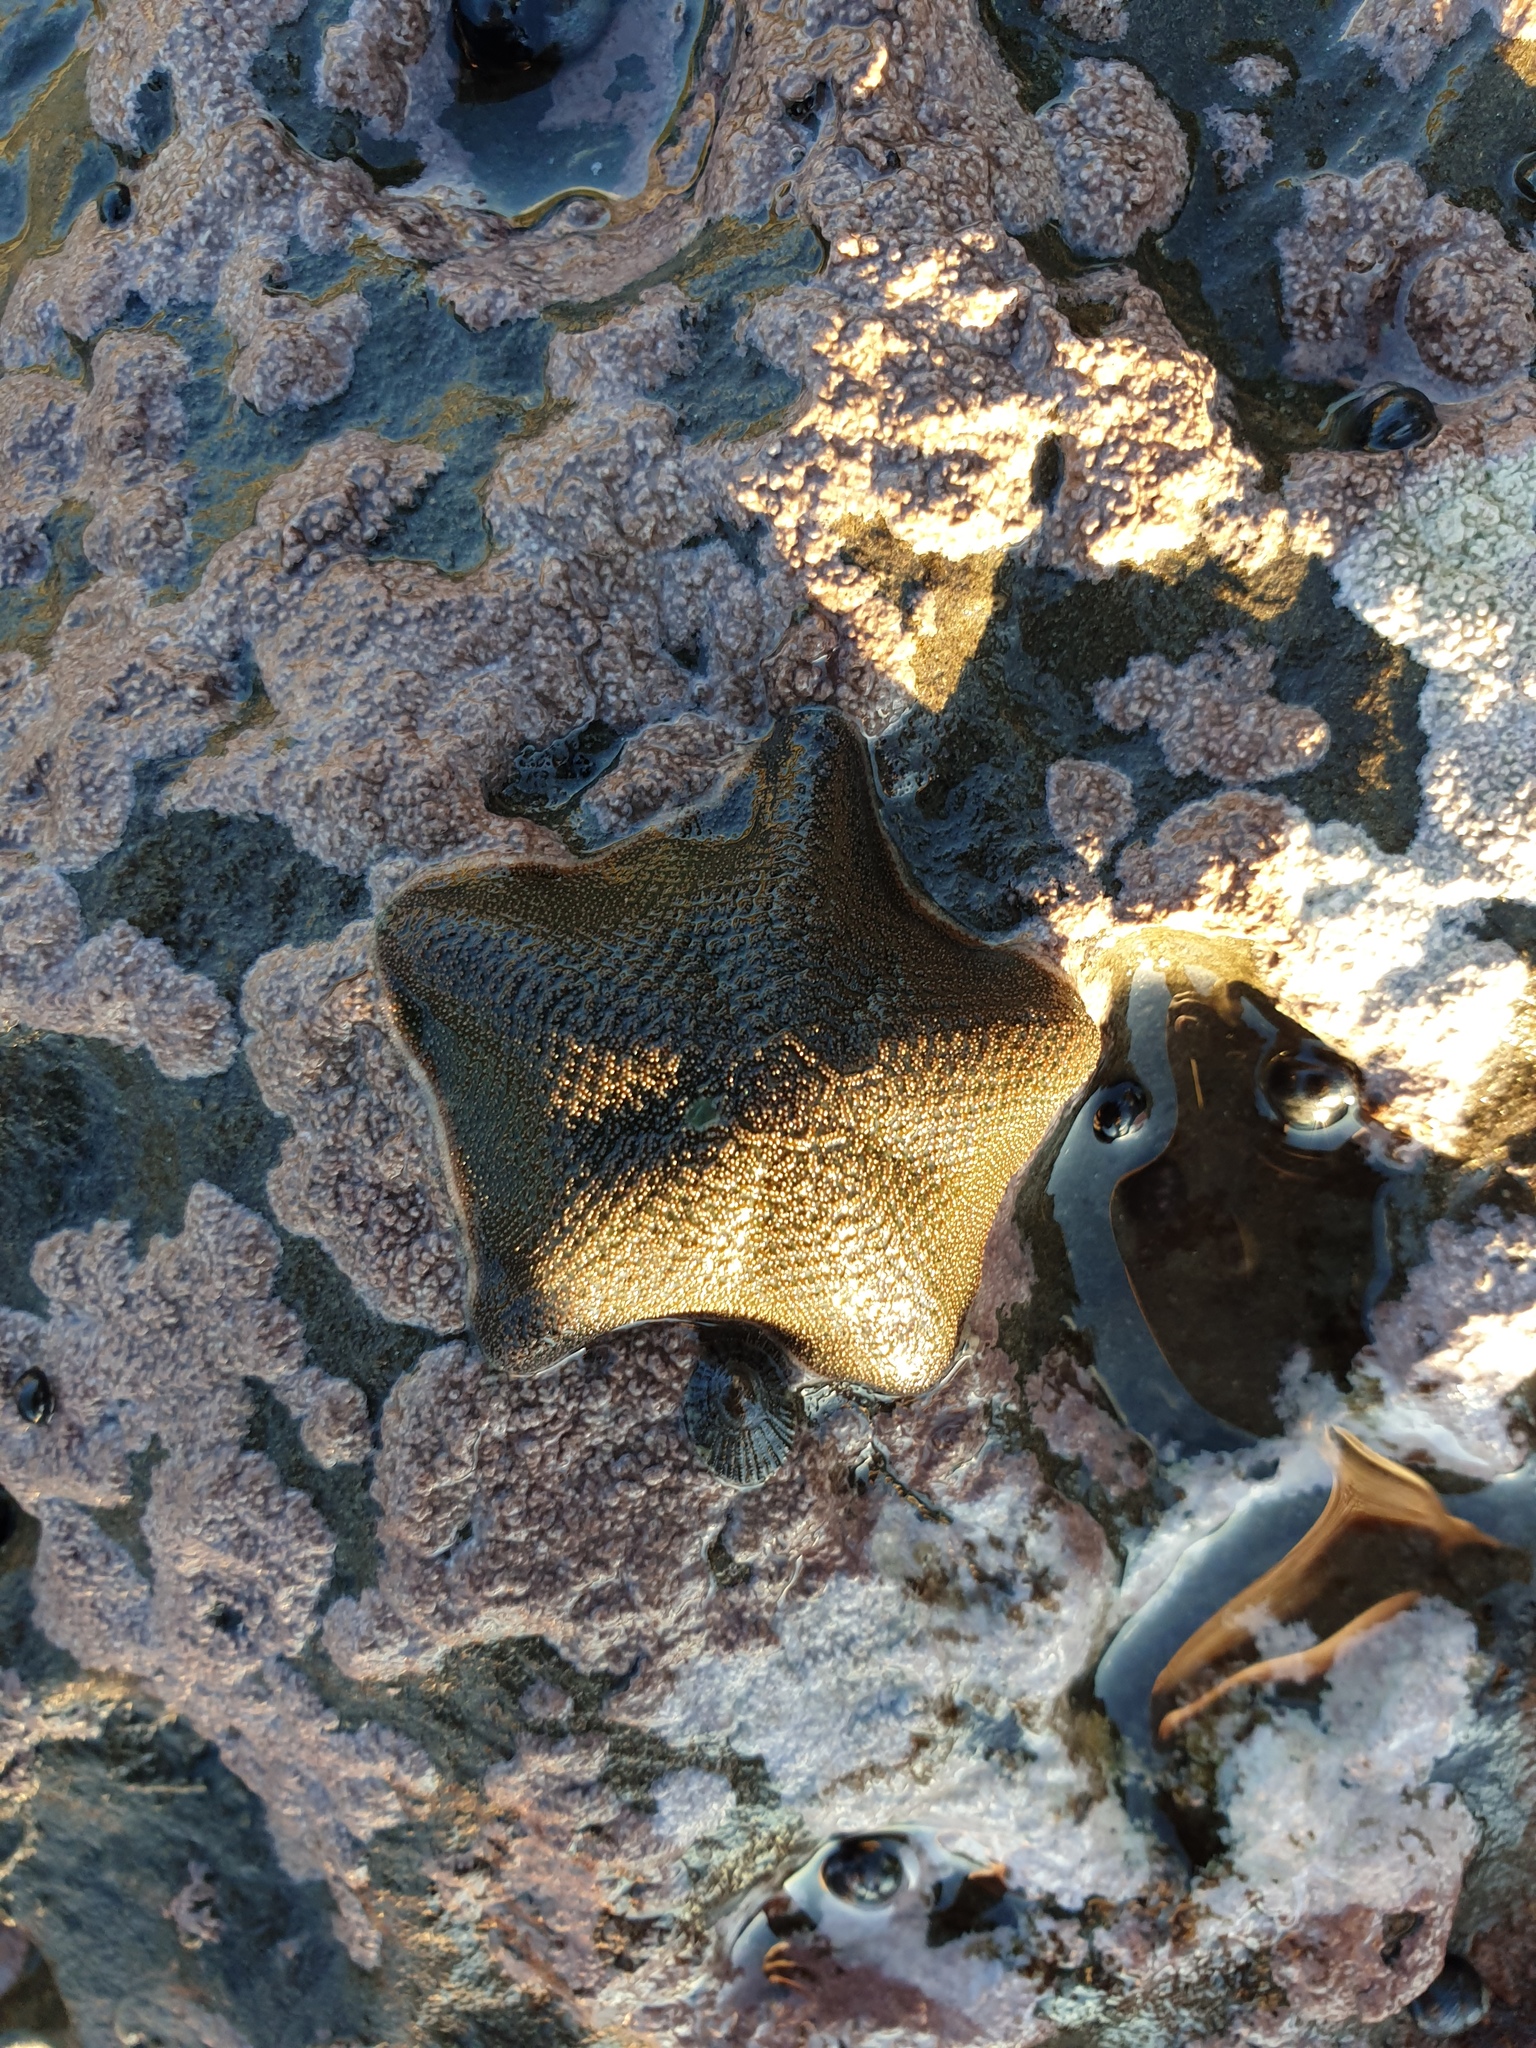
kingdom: Animalia
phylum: Echinodermata
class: Asteroidea
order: Valvatida
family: Asterinidae
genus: Patiriella
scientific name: Patiriella regularis
